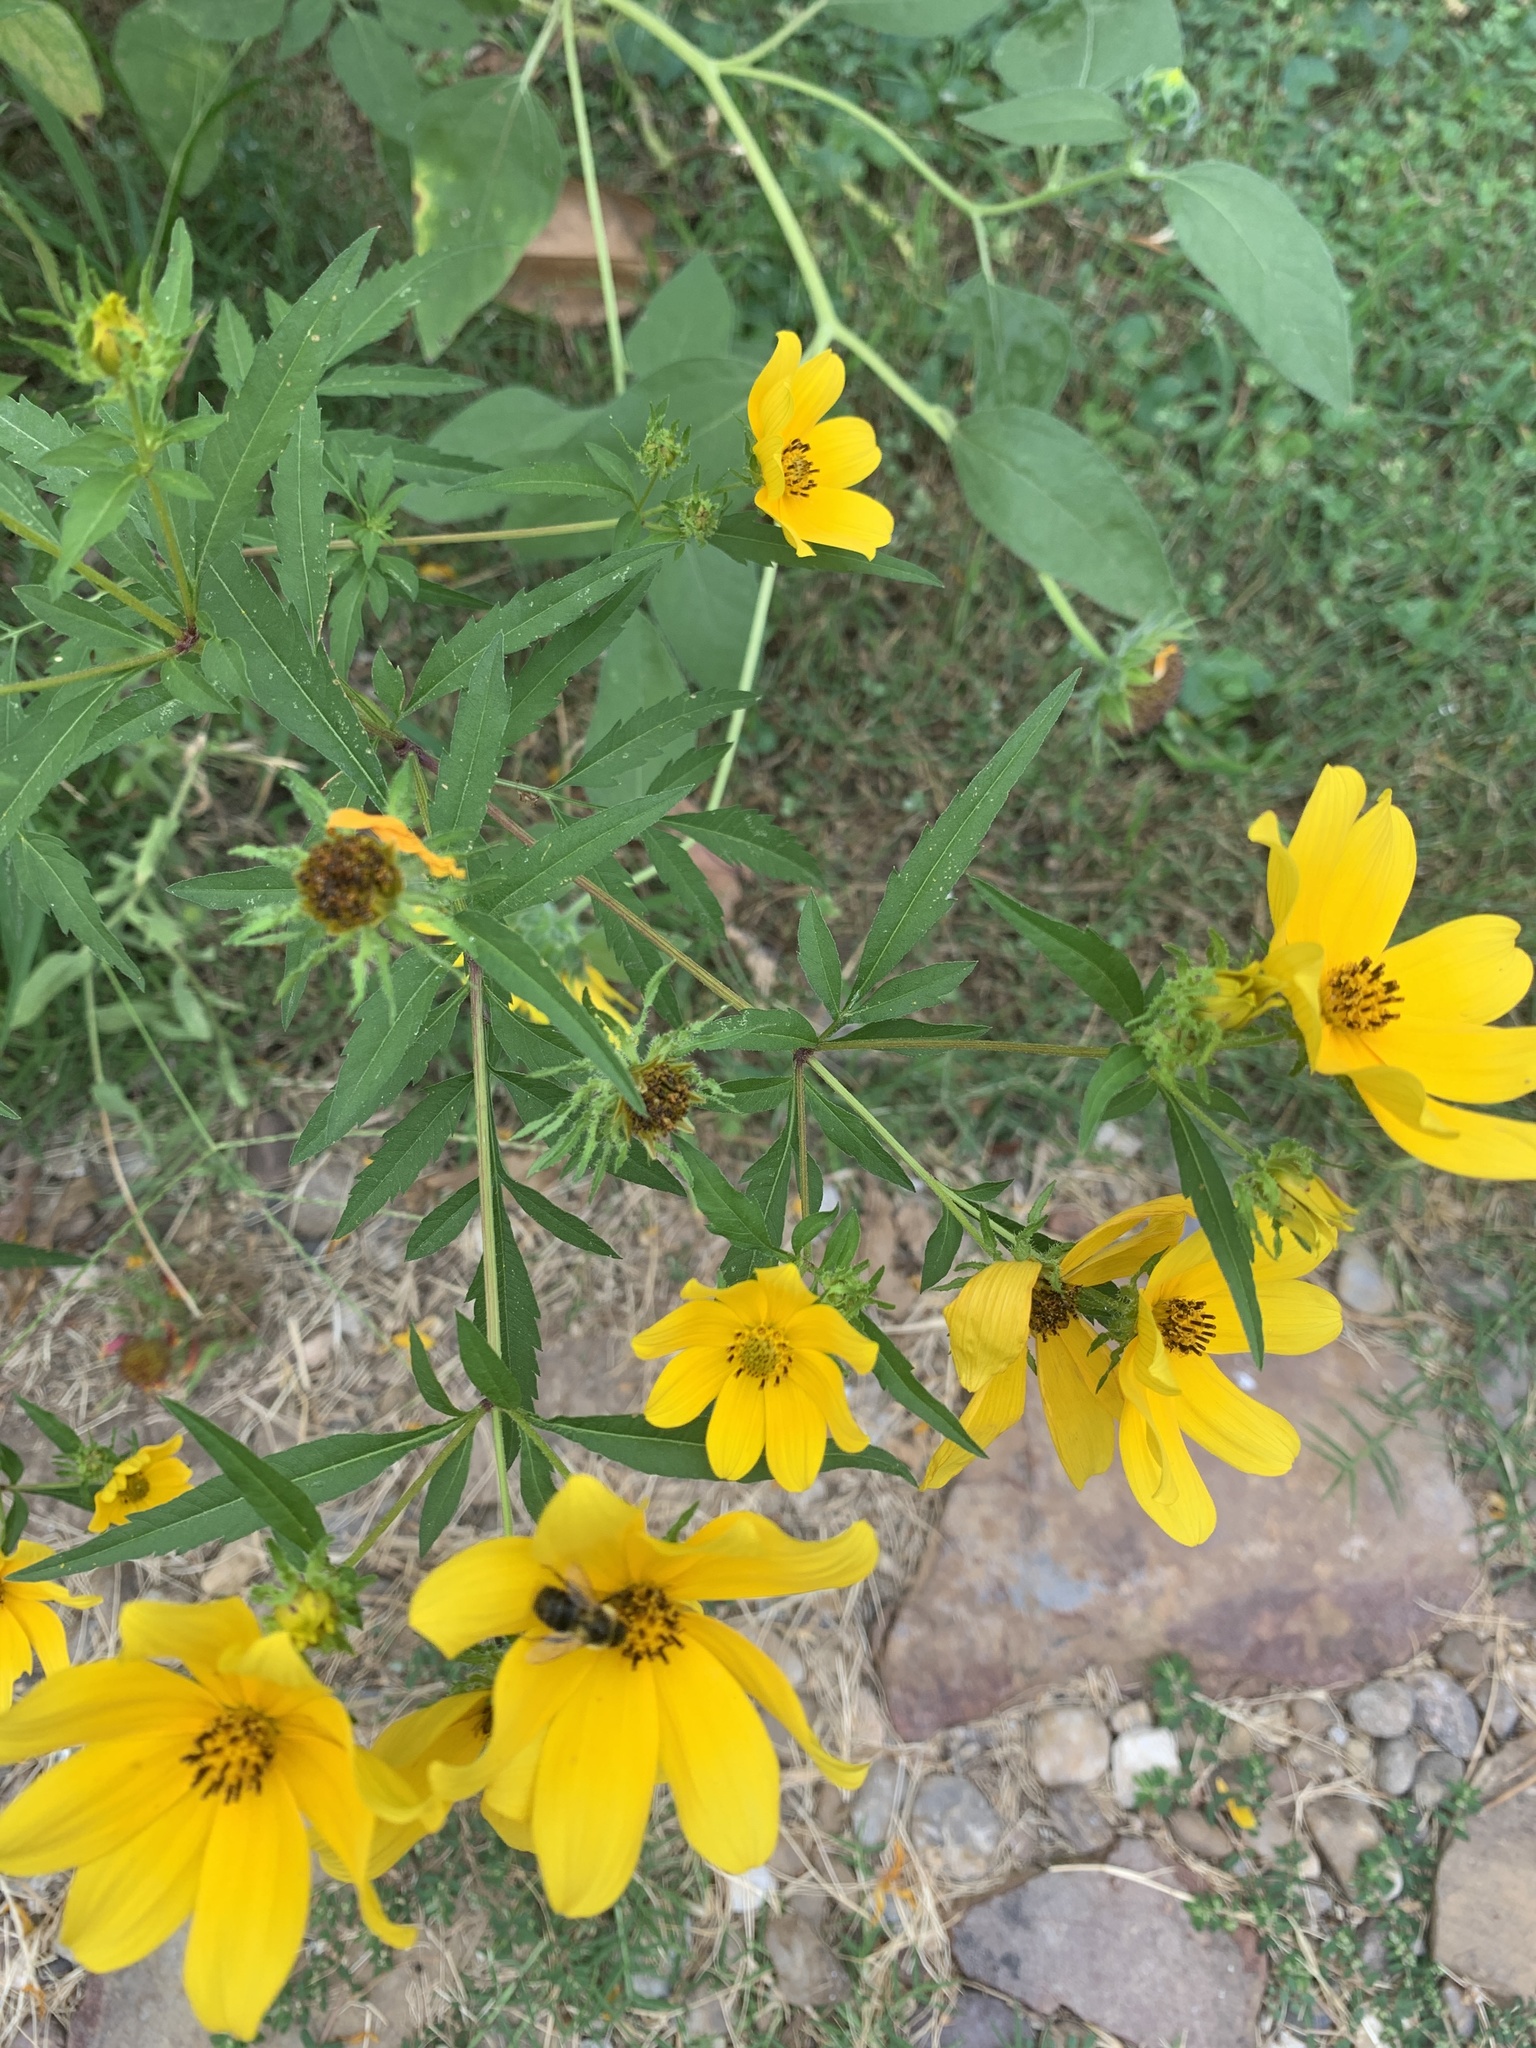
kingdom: Plantae
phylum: Tracheophyta
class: Magnoliopsida
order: Asterales
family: Asteraceae
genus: Bidens
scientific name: Bidens aristosa
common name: Western tickseed
